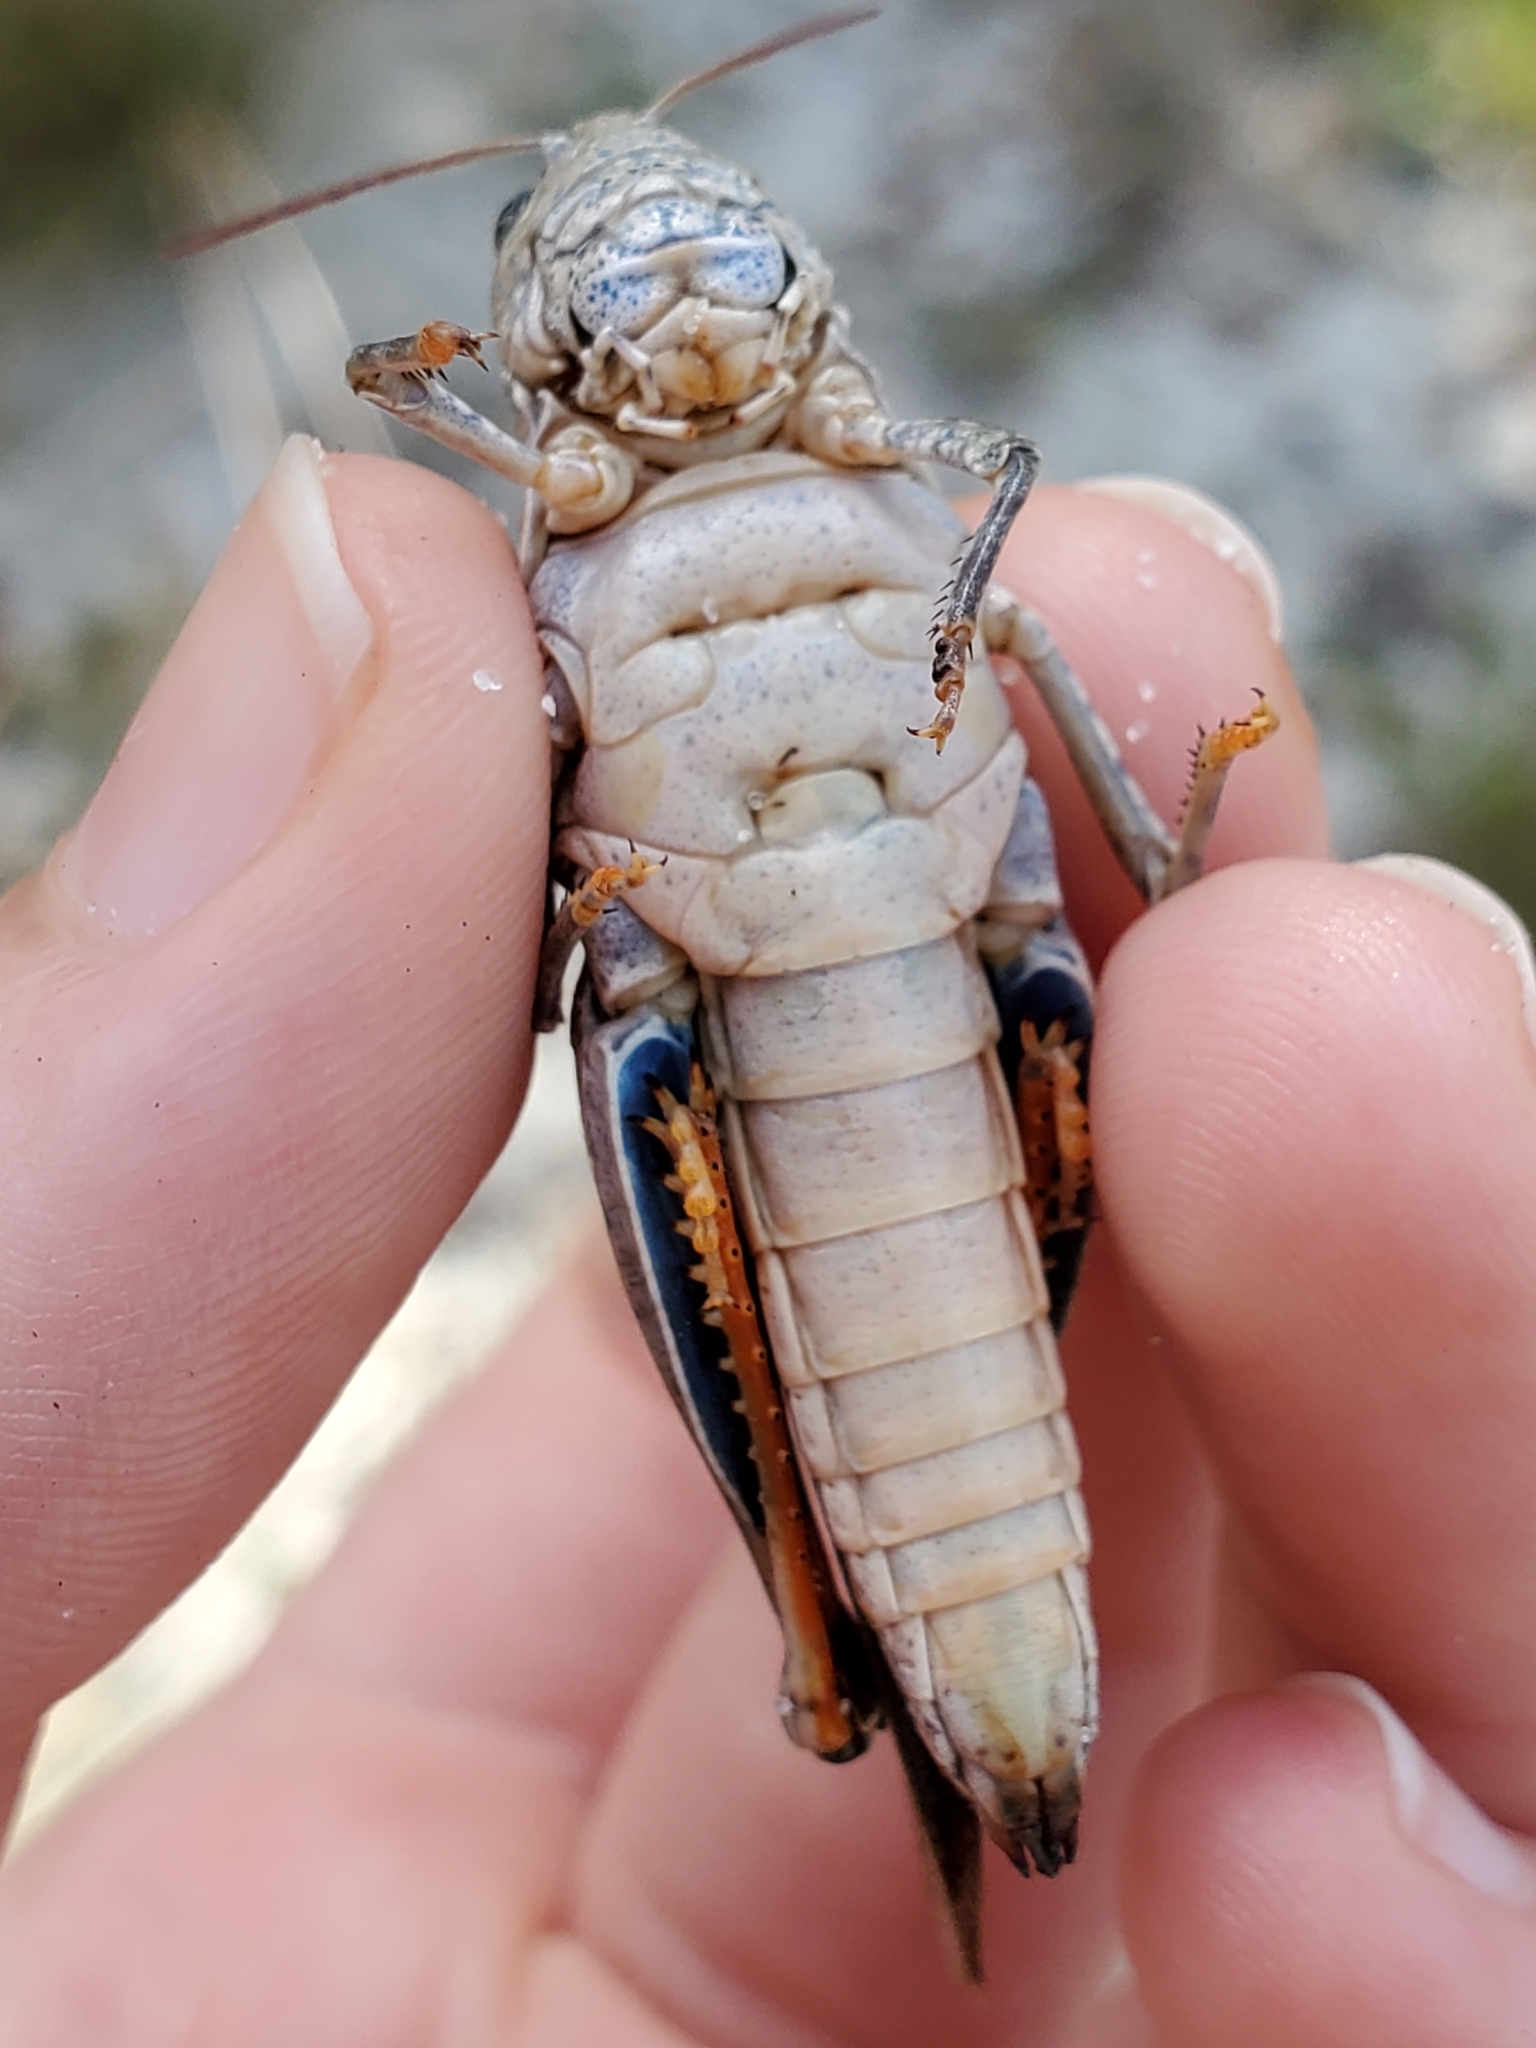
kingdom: Animalia
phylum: Arthropoda
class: Insecta
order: Orthoptera
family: Acrididae
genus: Pardalophora
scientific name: Pardalophora phoenicoptera
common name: Orange-winged grasshopper
